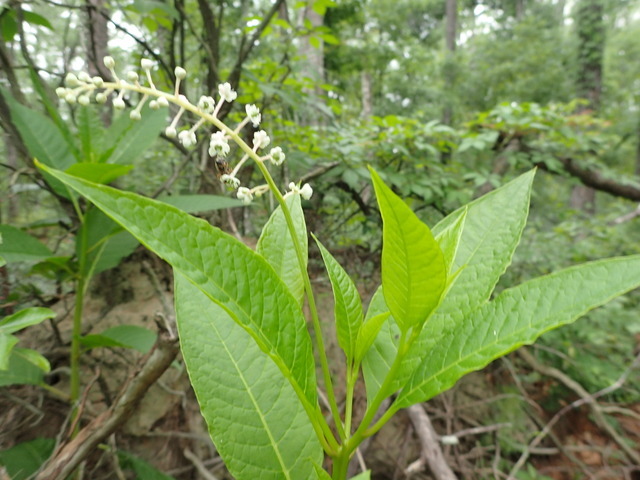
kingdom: Plantae
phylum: Tracheophyta
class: Magnoliopsida
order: Caryophyllales
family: Phytolaccaceae
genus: Phytolacca
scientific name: Phytolacca americana
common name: American pokeweed
